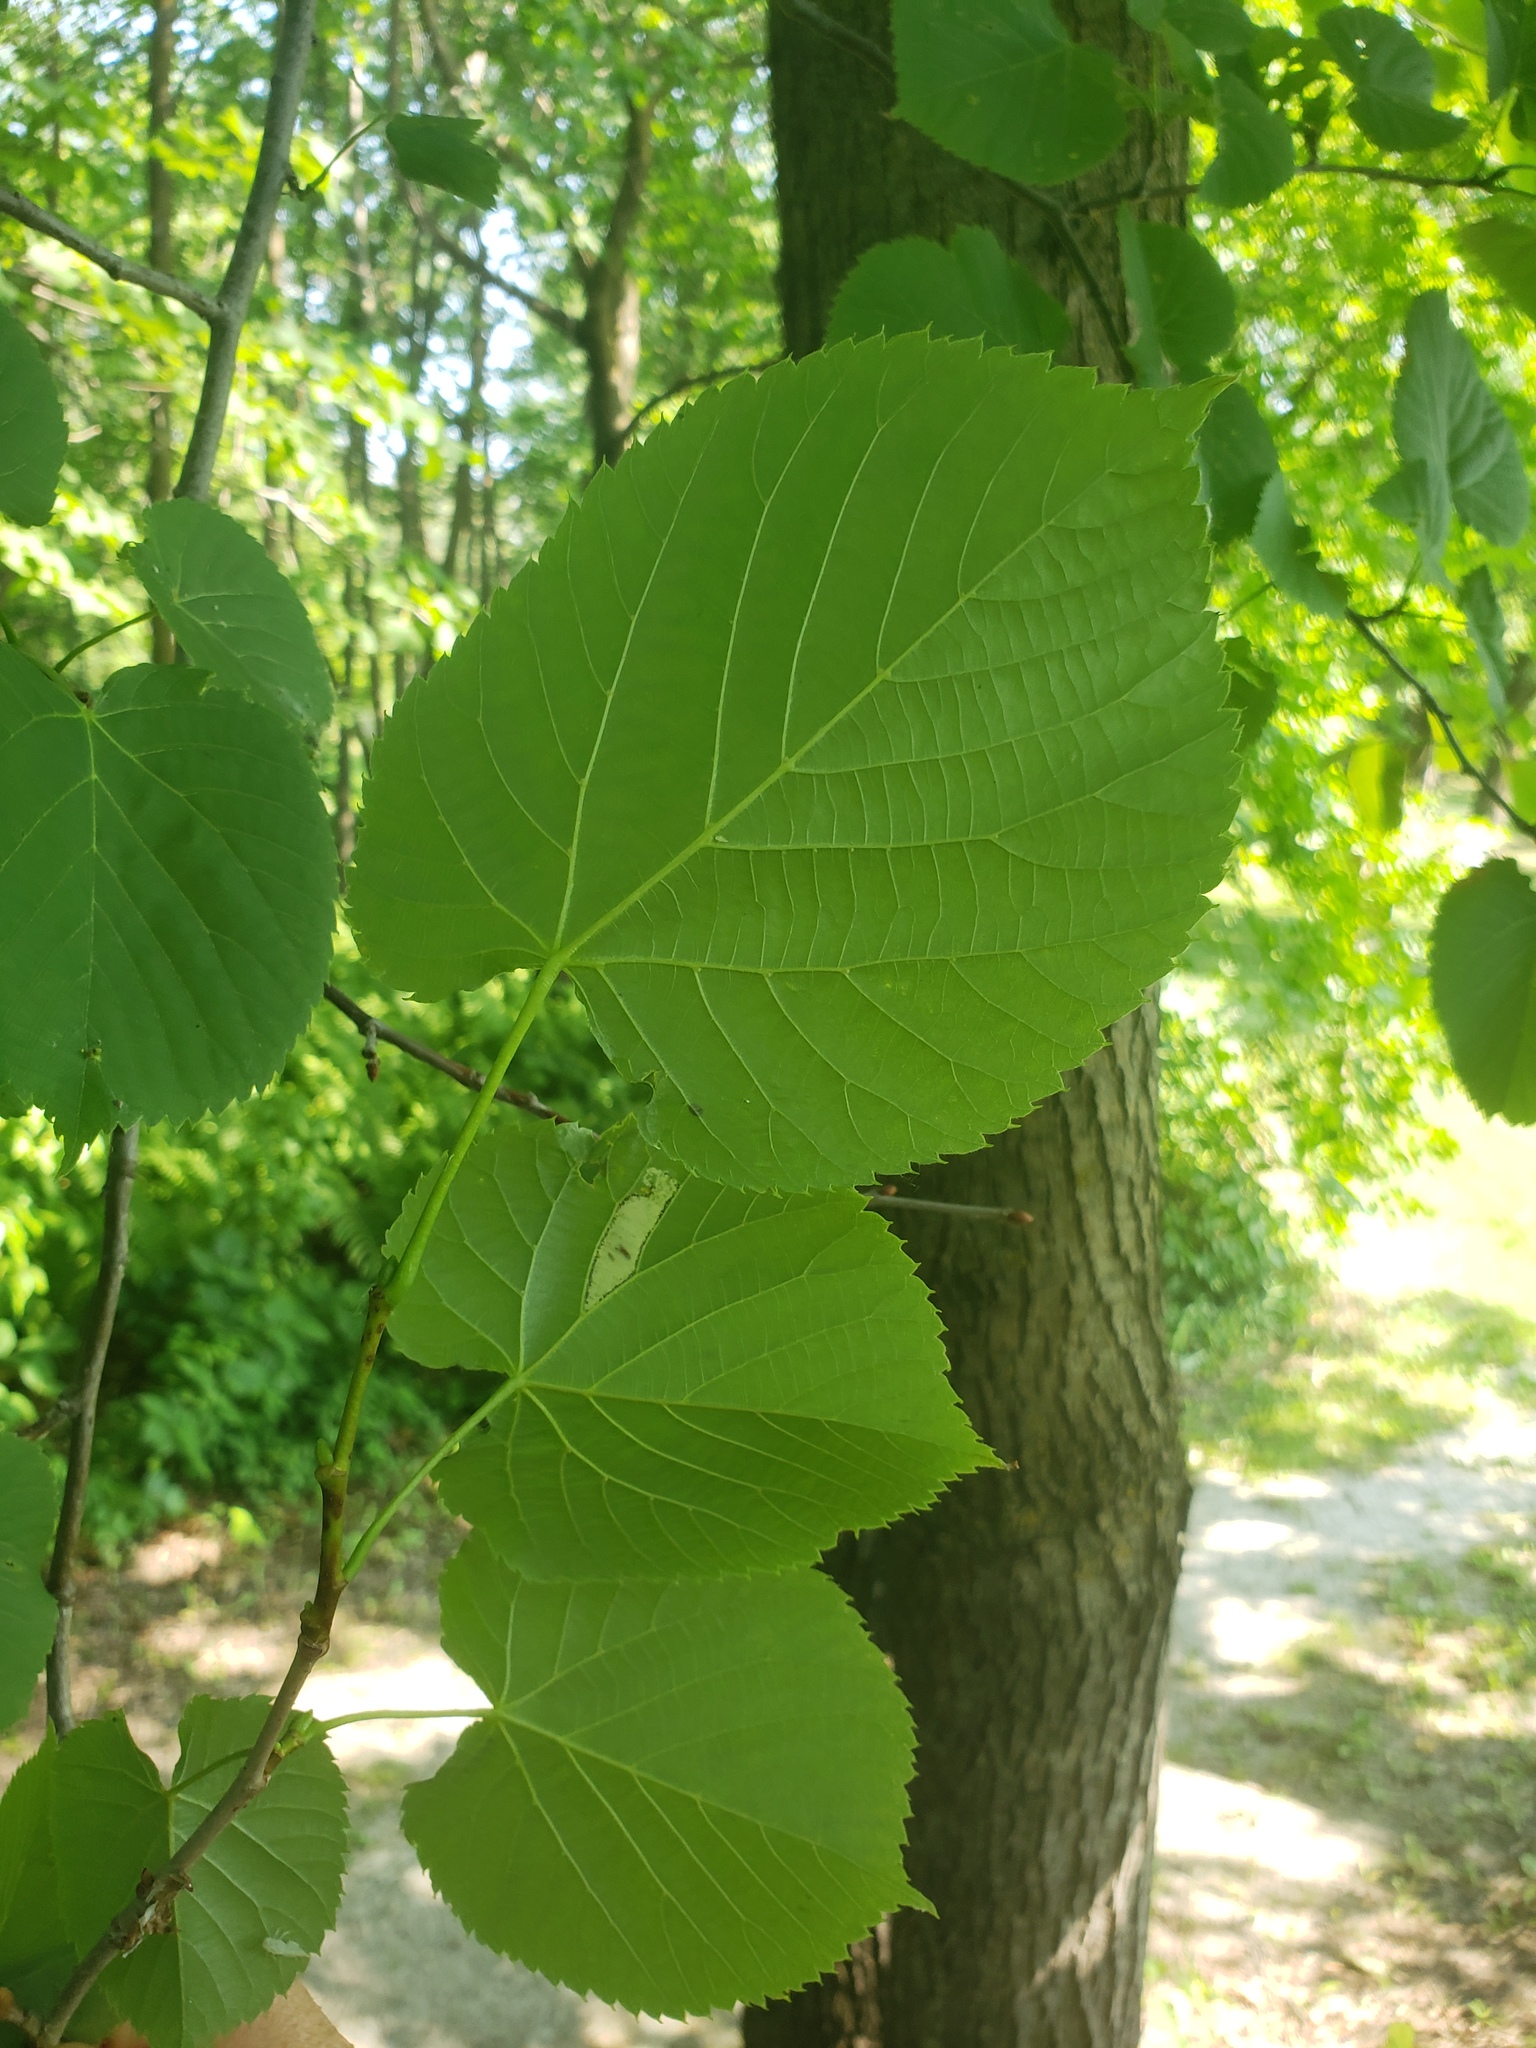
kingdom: Plantae
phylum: Tracheophyta
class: Magnoliopsida
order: Malvales
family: Malvaceae
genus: Tilia
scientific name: Tilia americana
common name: Basswood
